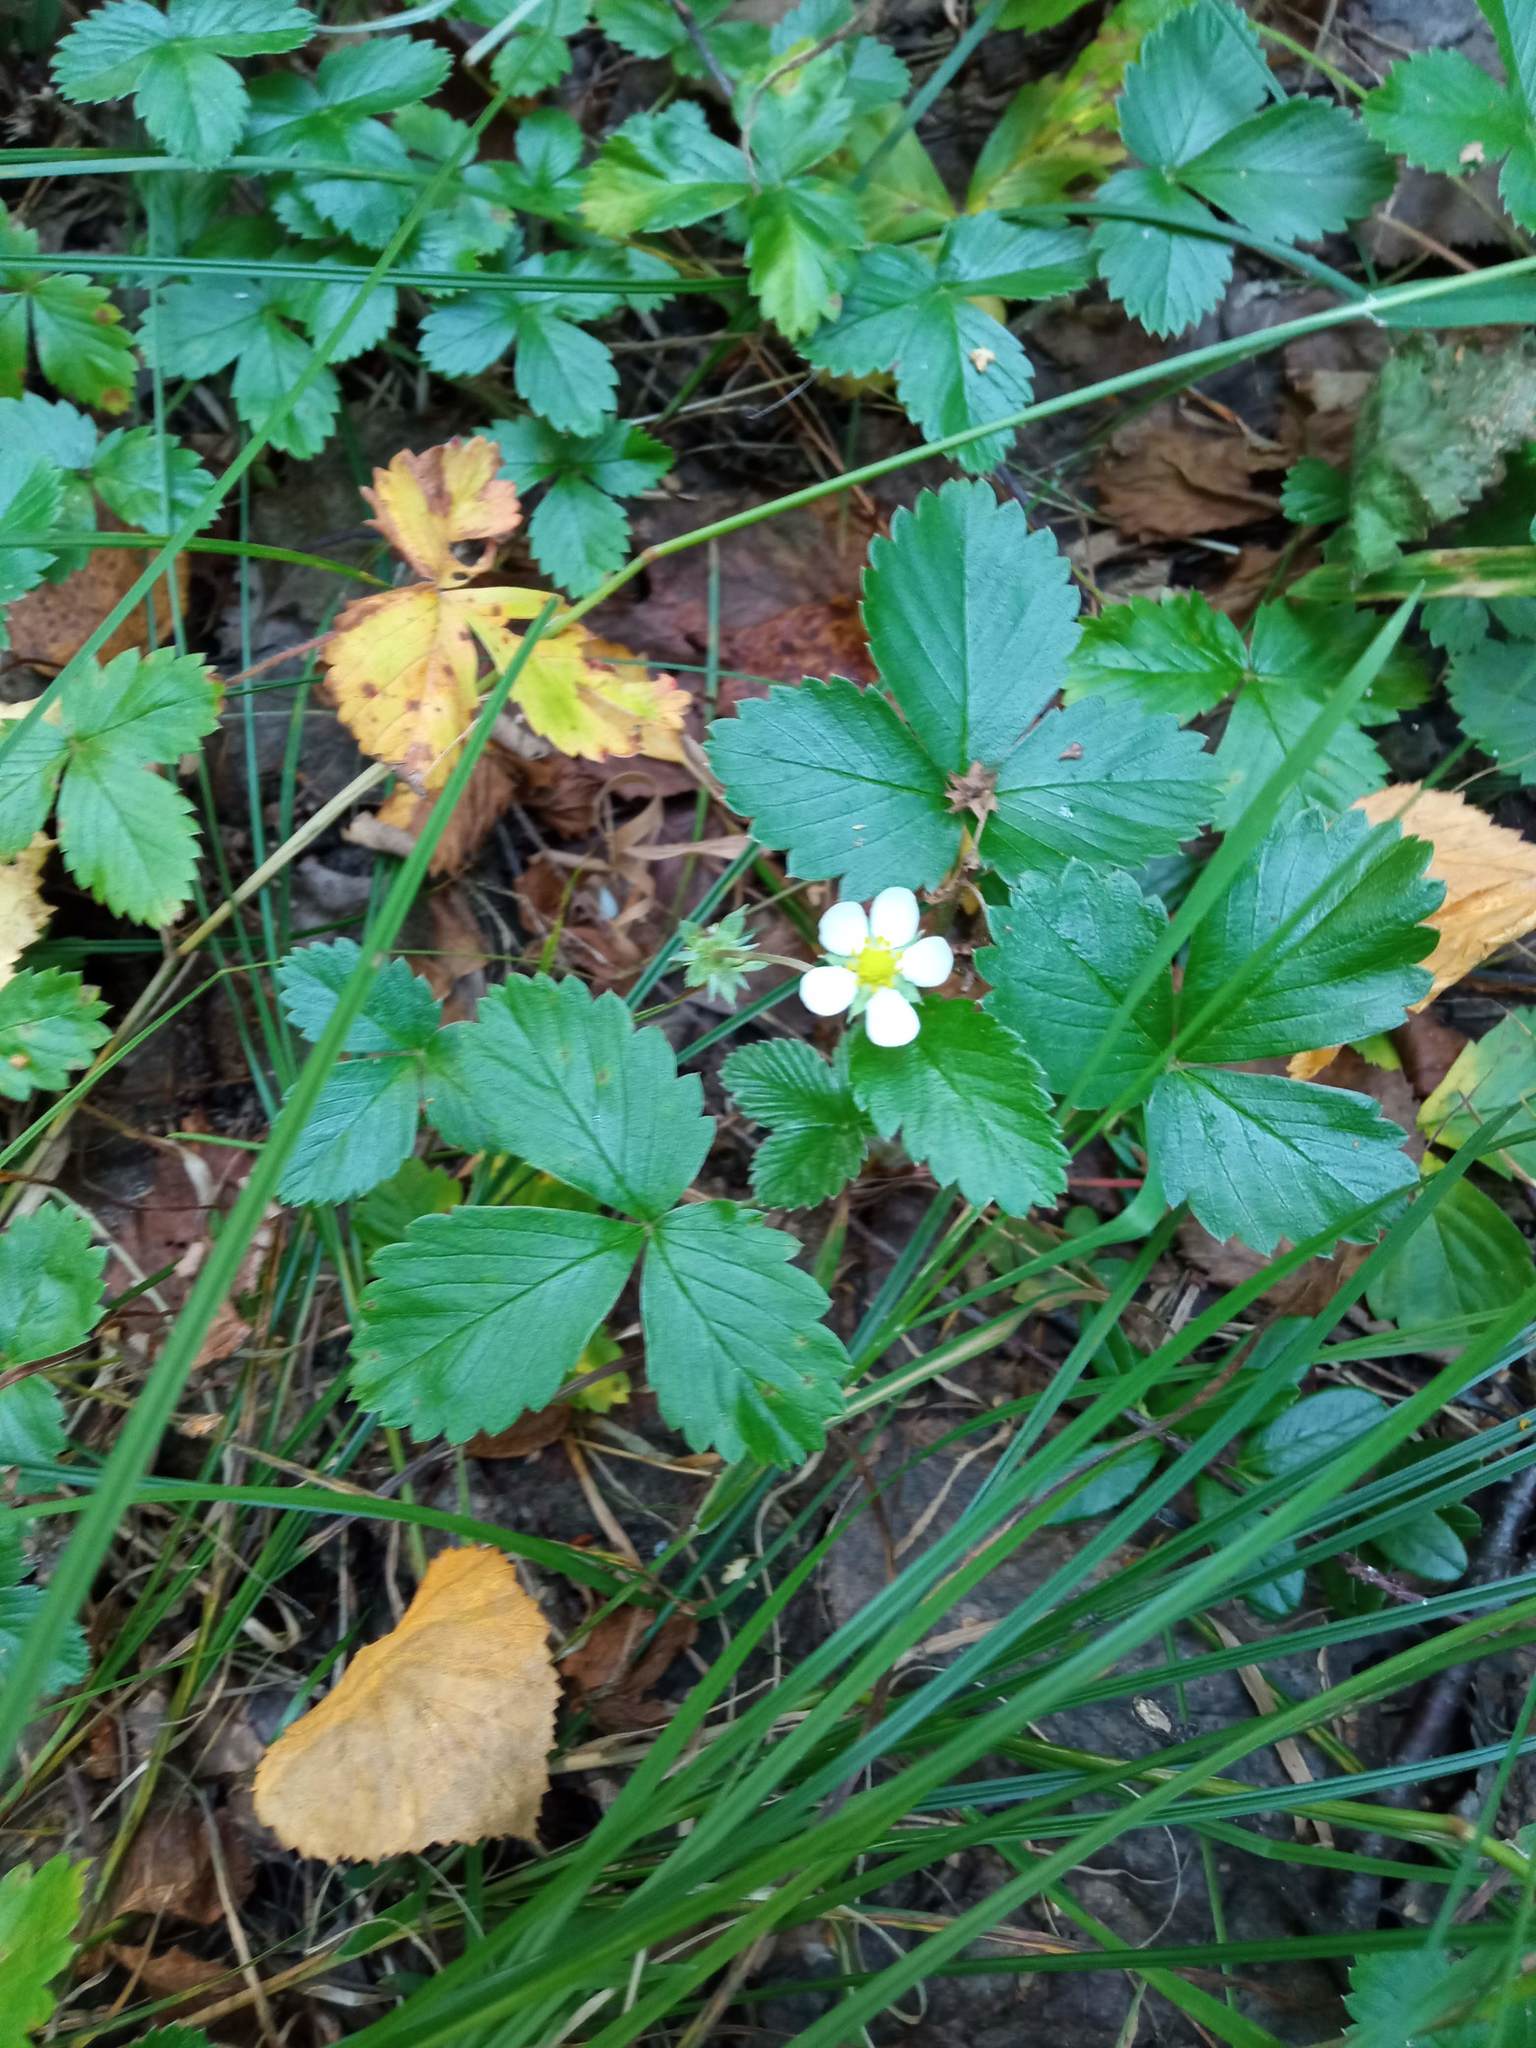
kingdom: Plantae
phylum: Tracheophyta
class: Magnoliopsida
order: Rosales
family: Rosaceae
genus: Fragaria
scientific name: Fragaria vesca
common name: Wild strawberry
